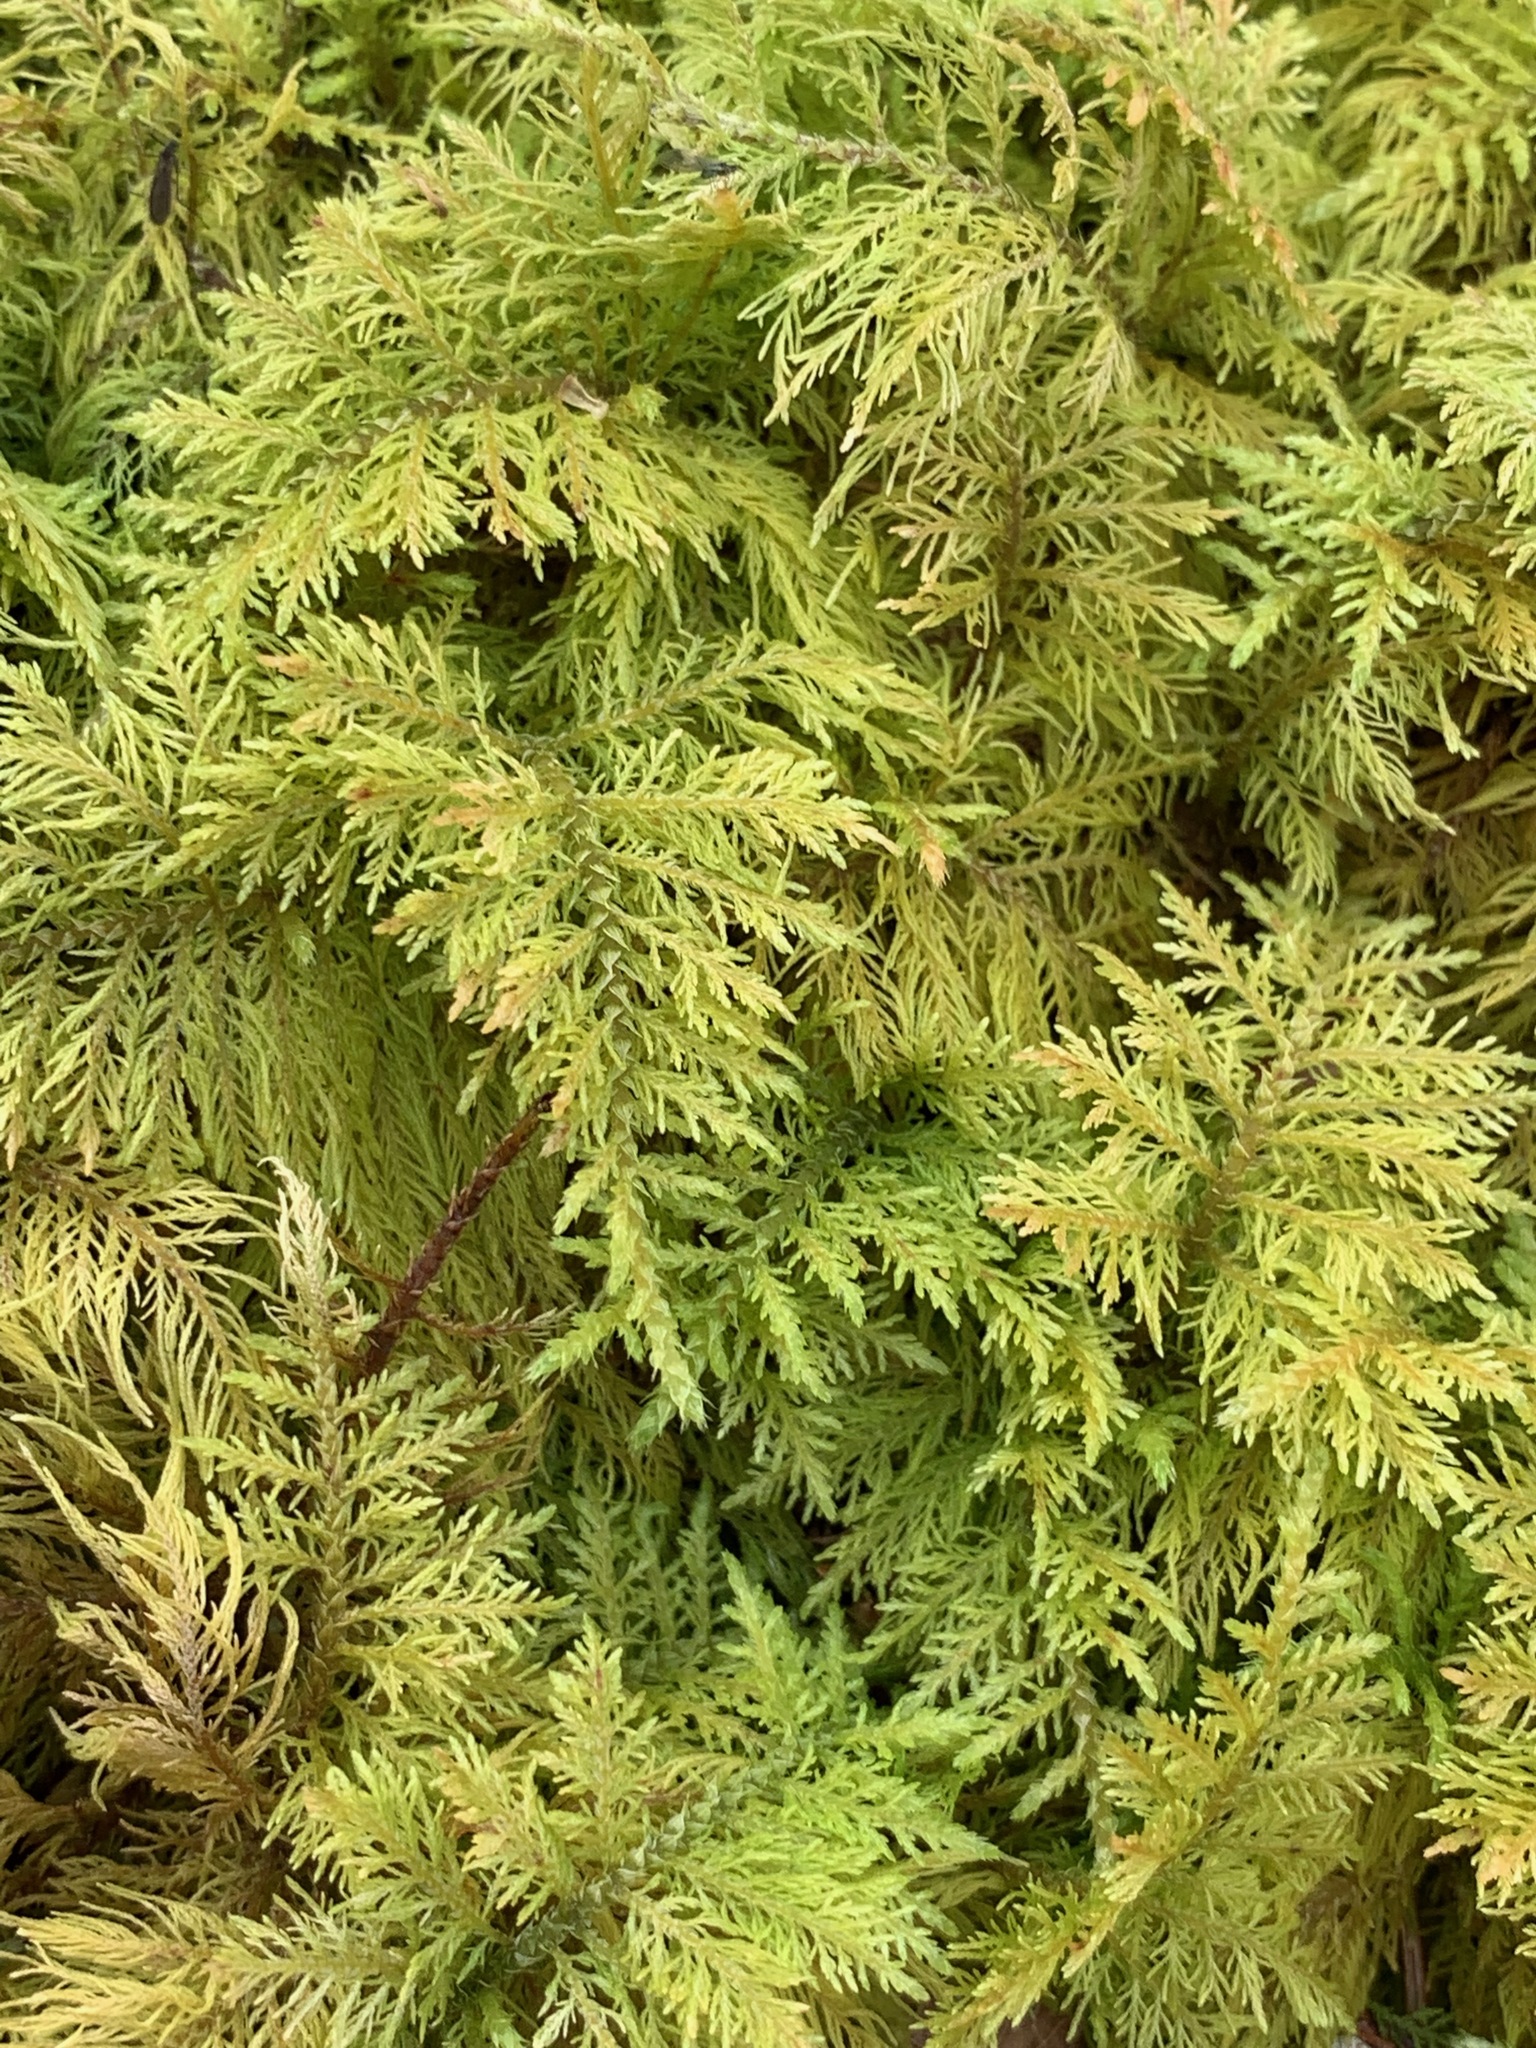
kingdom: Plantae
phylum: Bryophyta
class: Bryopsida
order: Hypnales
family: Thuidiaceae
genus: Thuidium
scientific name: Thuidium tamariscinum
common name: Common tamarisk-moss
